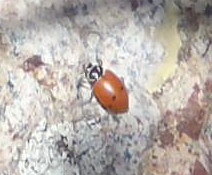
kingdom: Animalia
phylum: Arthropoda
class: Insecta
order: Coleoptera
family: Coccinellidae
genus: Hippodamia
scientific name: Hippodamia convergens
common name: Convergent lady beetle
